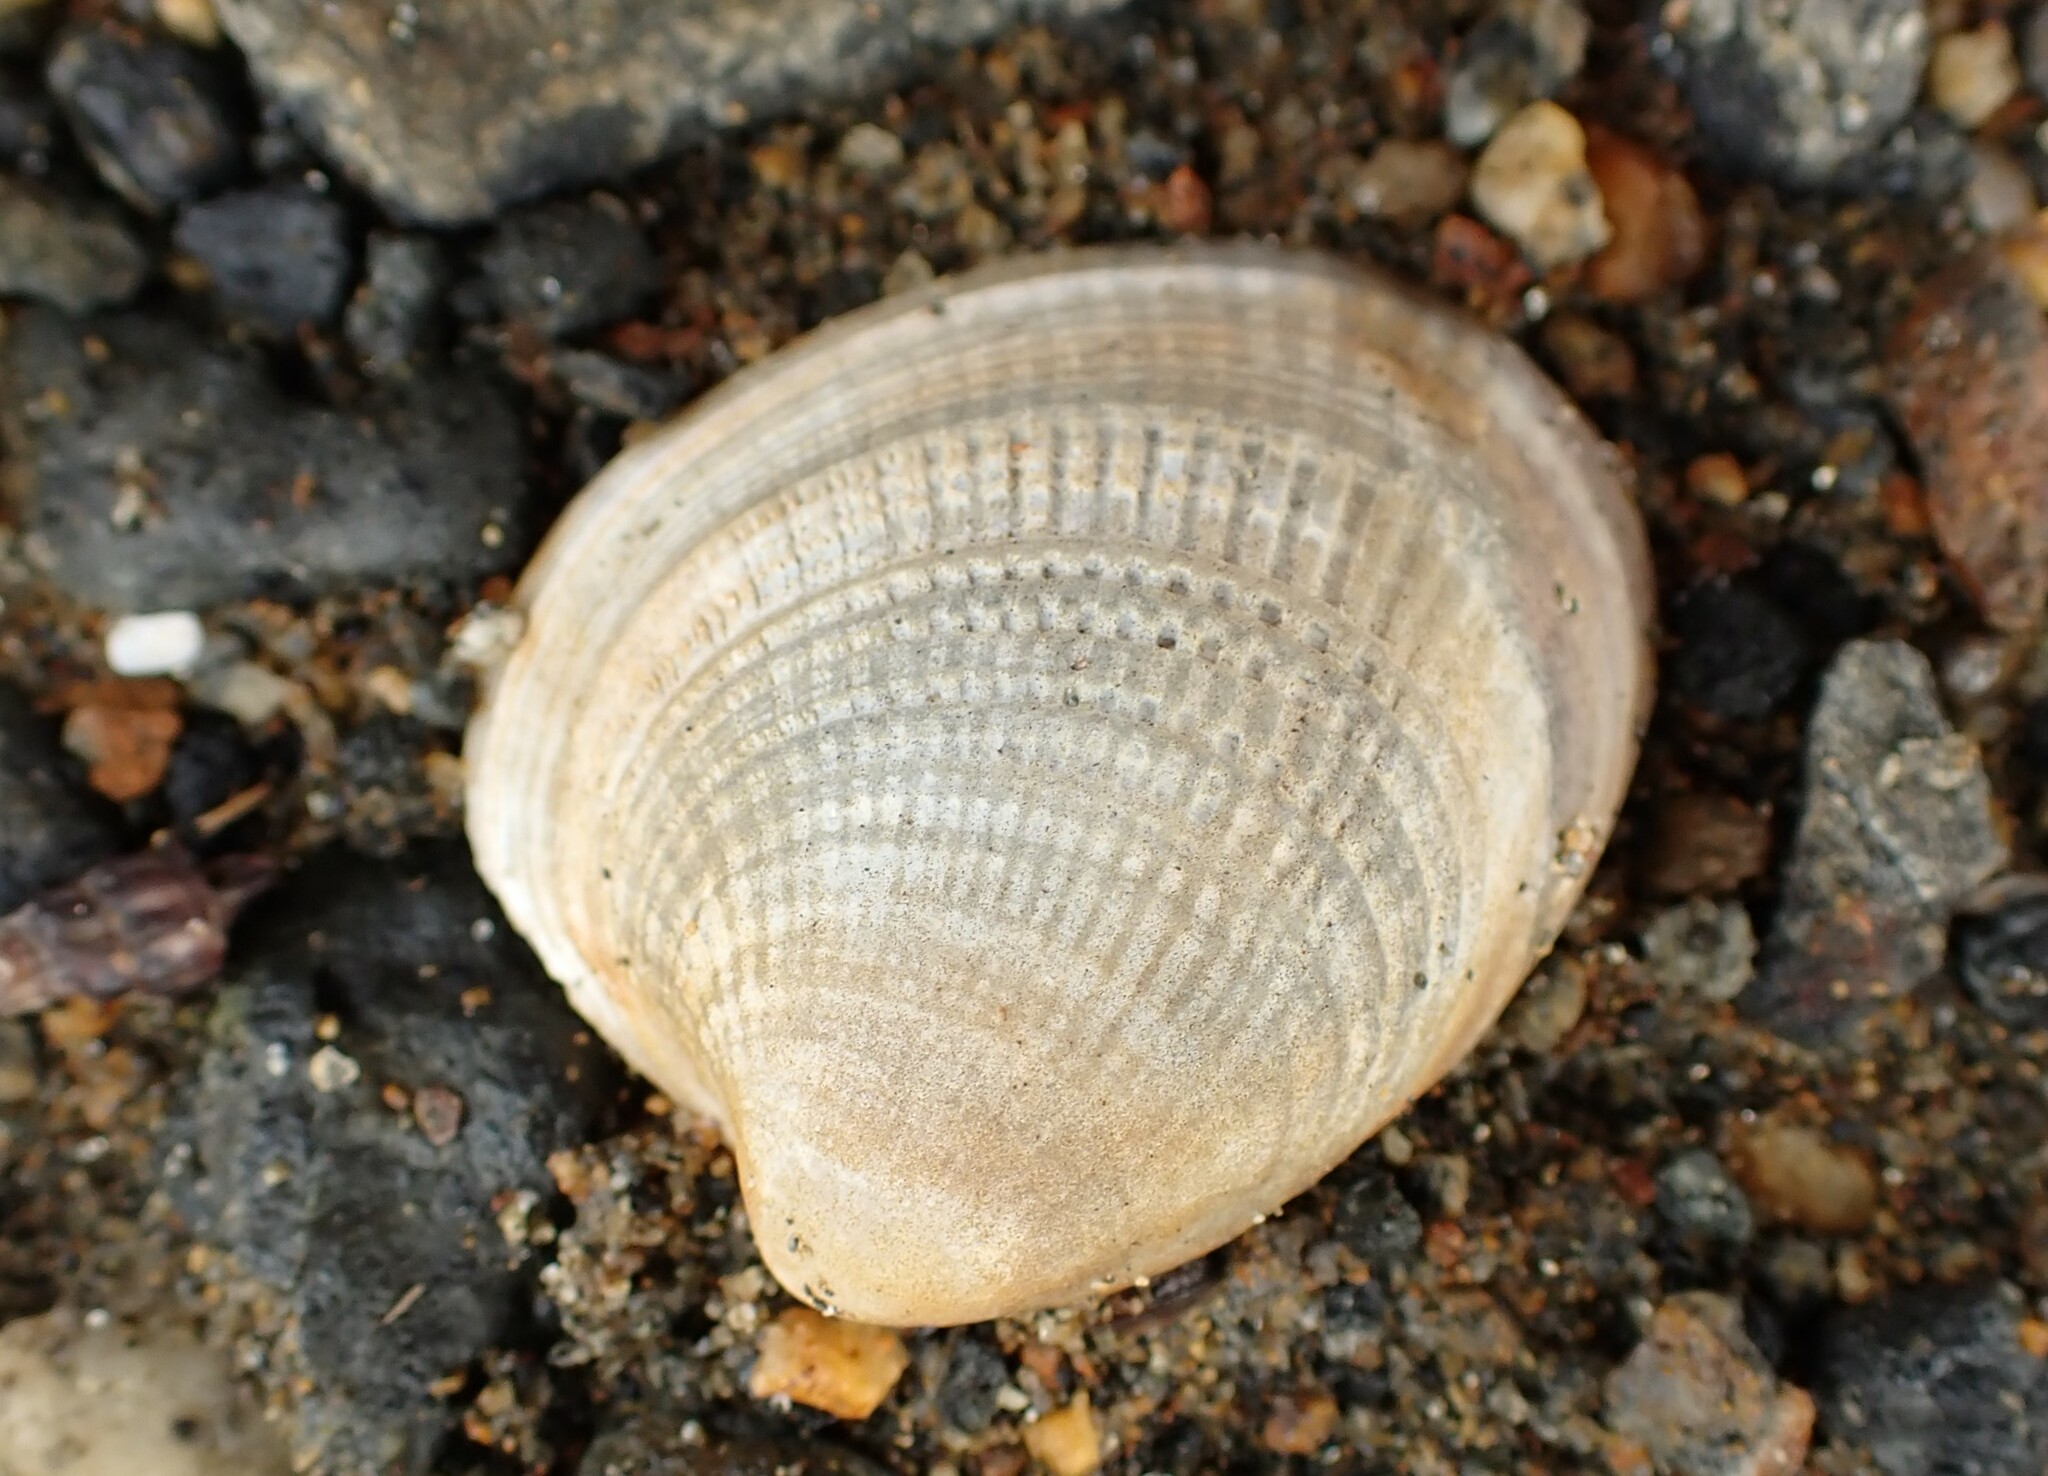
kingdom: Animalia
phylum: Mollusca
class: Bivalvia
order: Venerida
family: Veneridae
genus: Austrovenus
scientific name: Austrovenus stutchburyi
